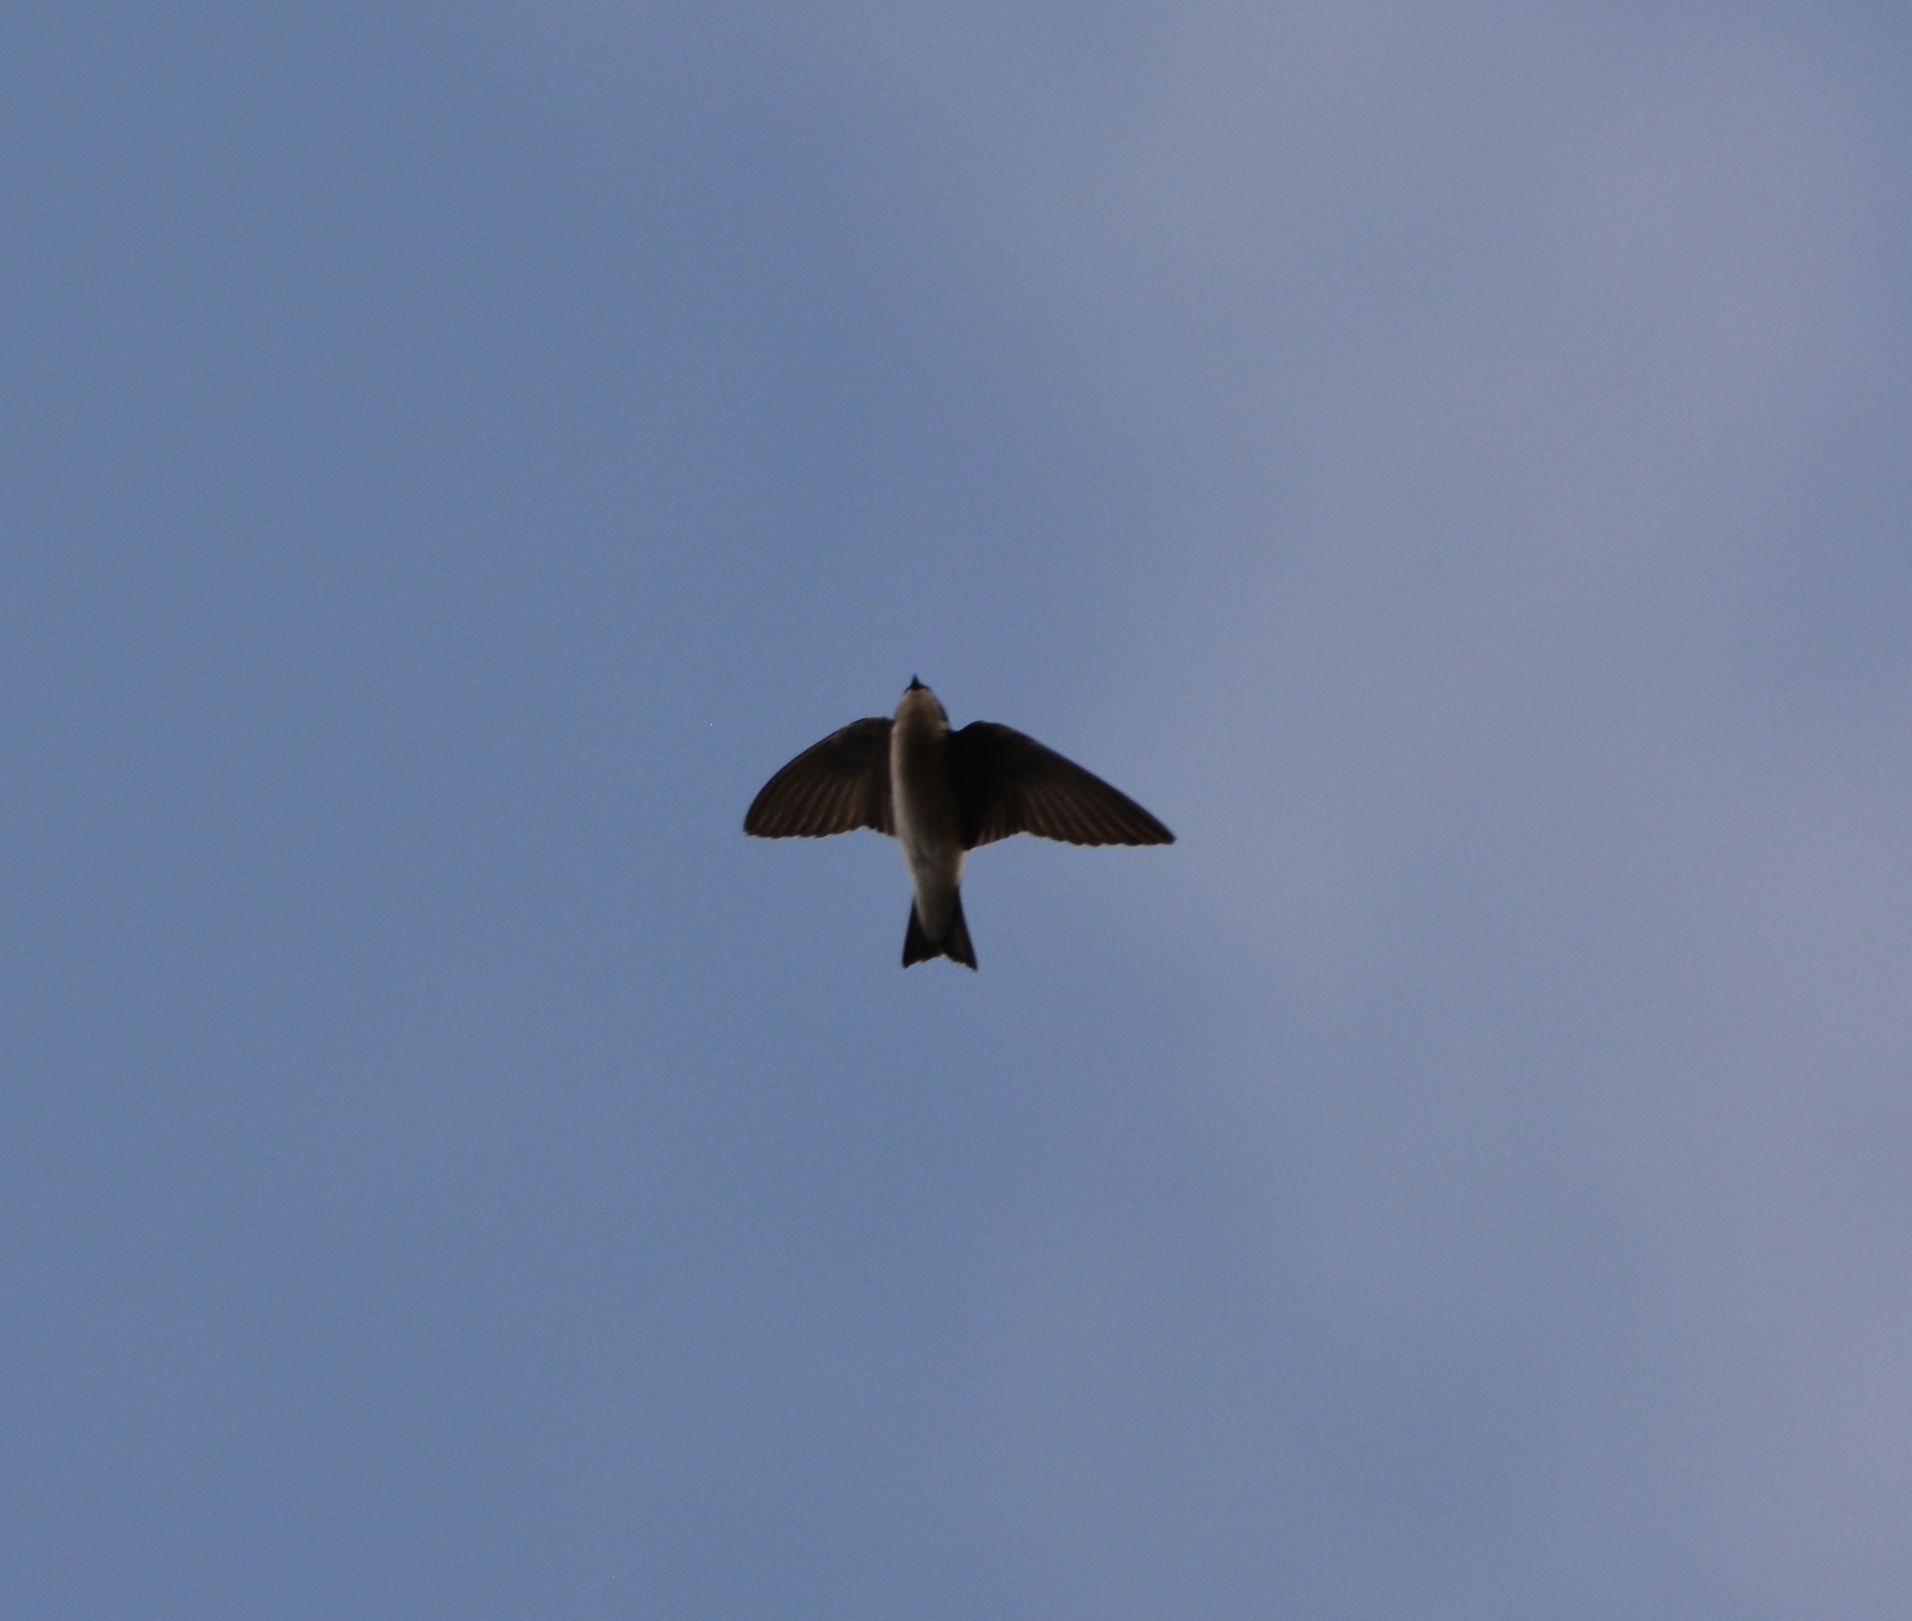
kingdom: Animalia
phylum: Chordata
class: Aves
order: Passeriformes
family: Hirundinidae
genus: Tachycineta
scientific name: Tachycineta bicolor
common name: Tree swallow
